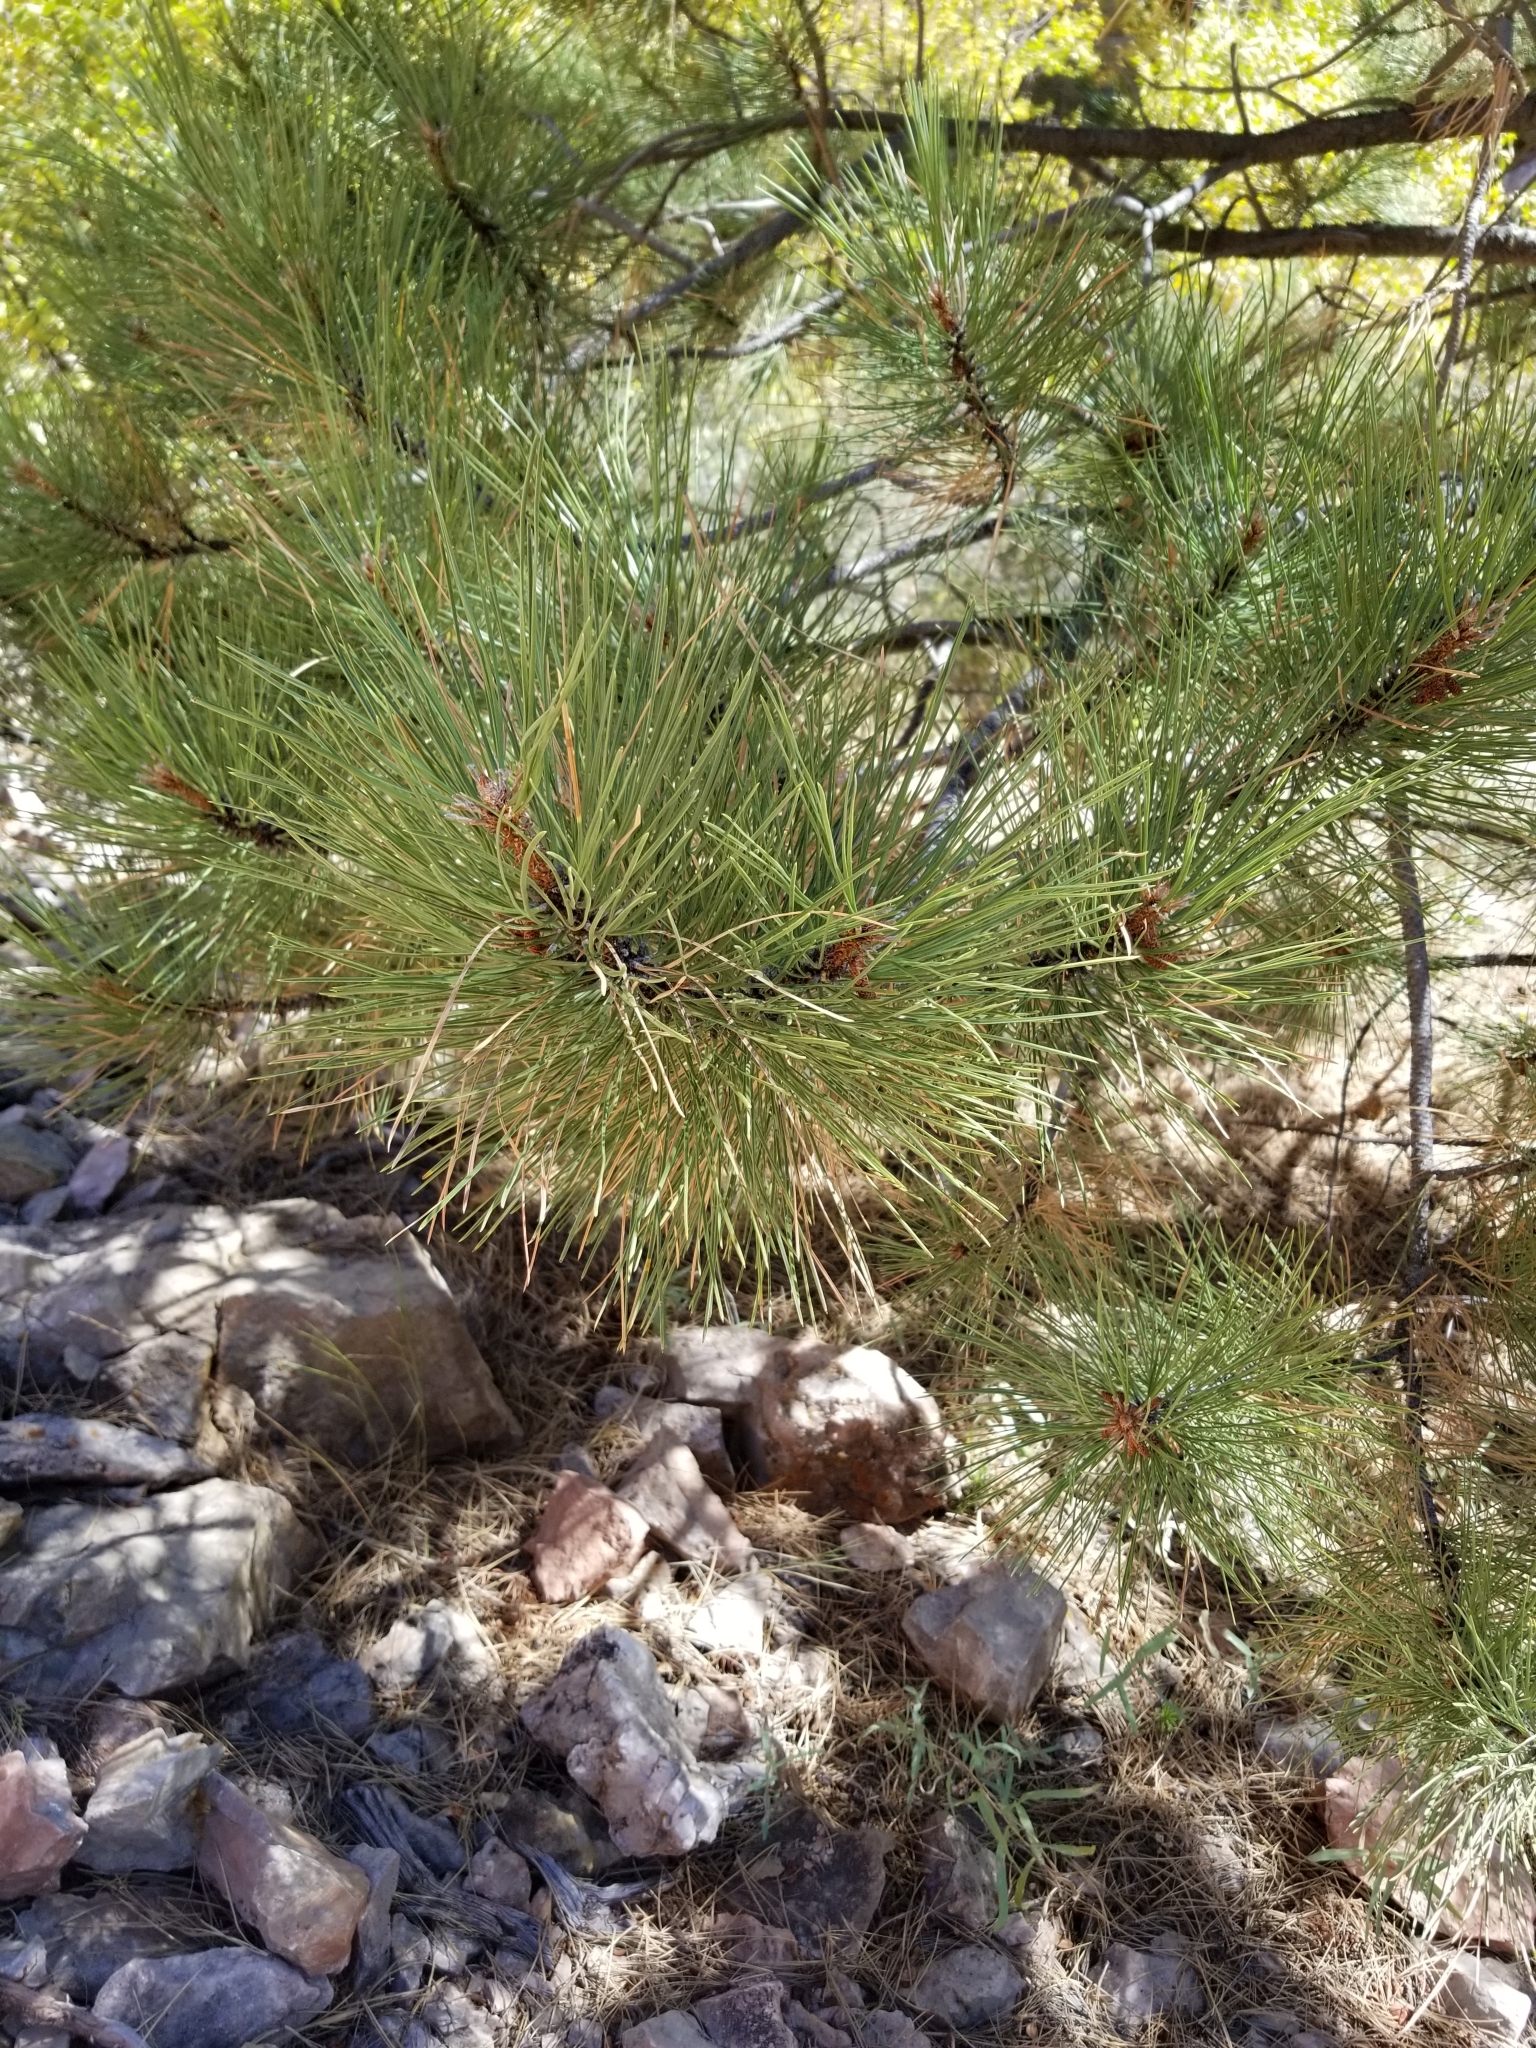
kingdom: Plantae
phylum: Tracheophyta
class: Pinopsida
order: Pinales
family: Pinaceae
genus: Pinus
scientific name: Pinus ponderosa
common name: Western yellow-pine
